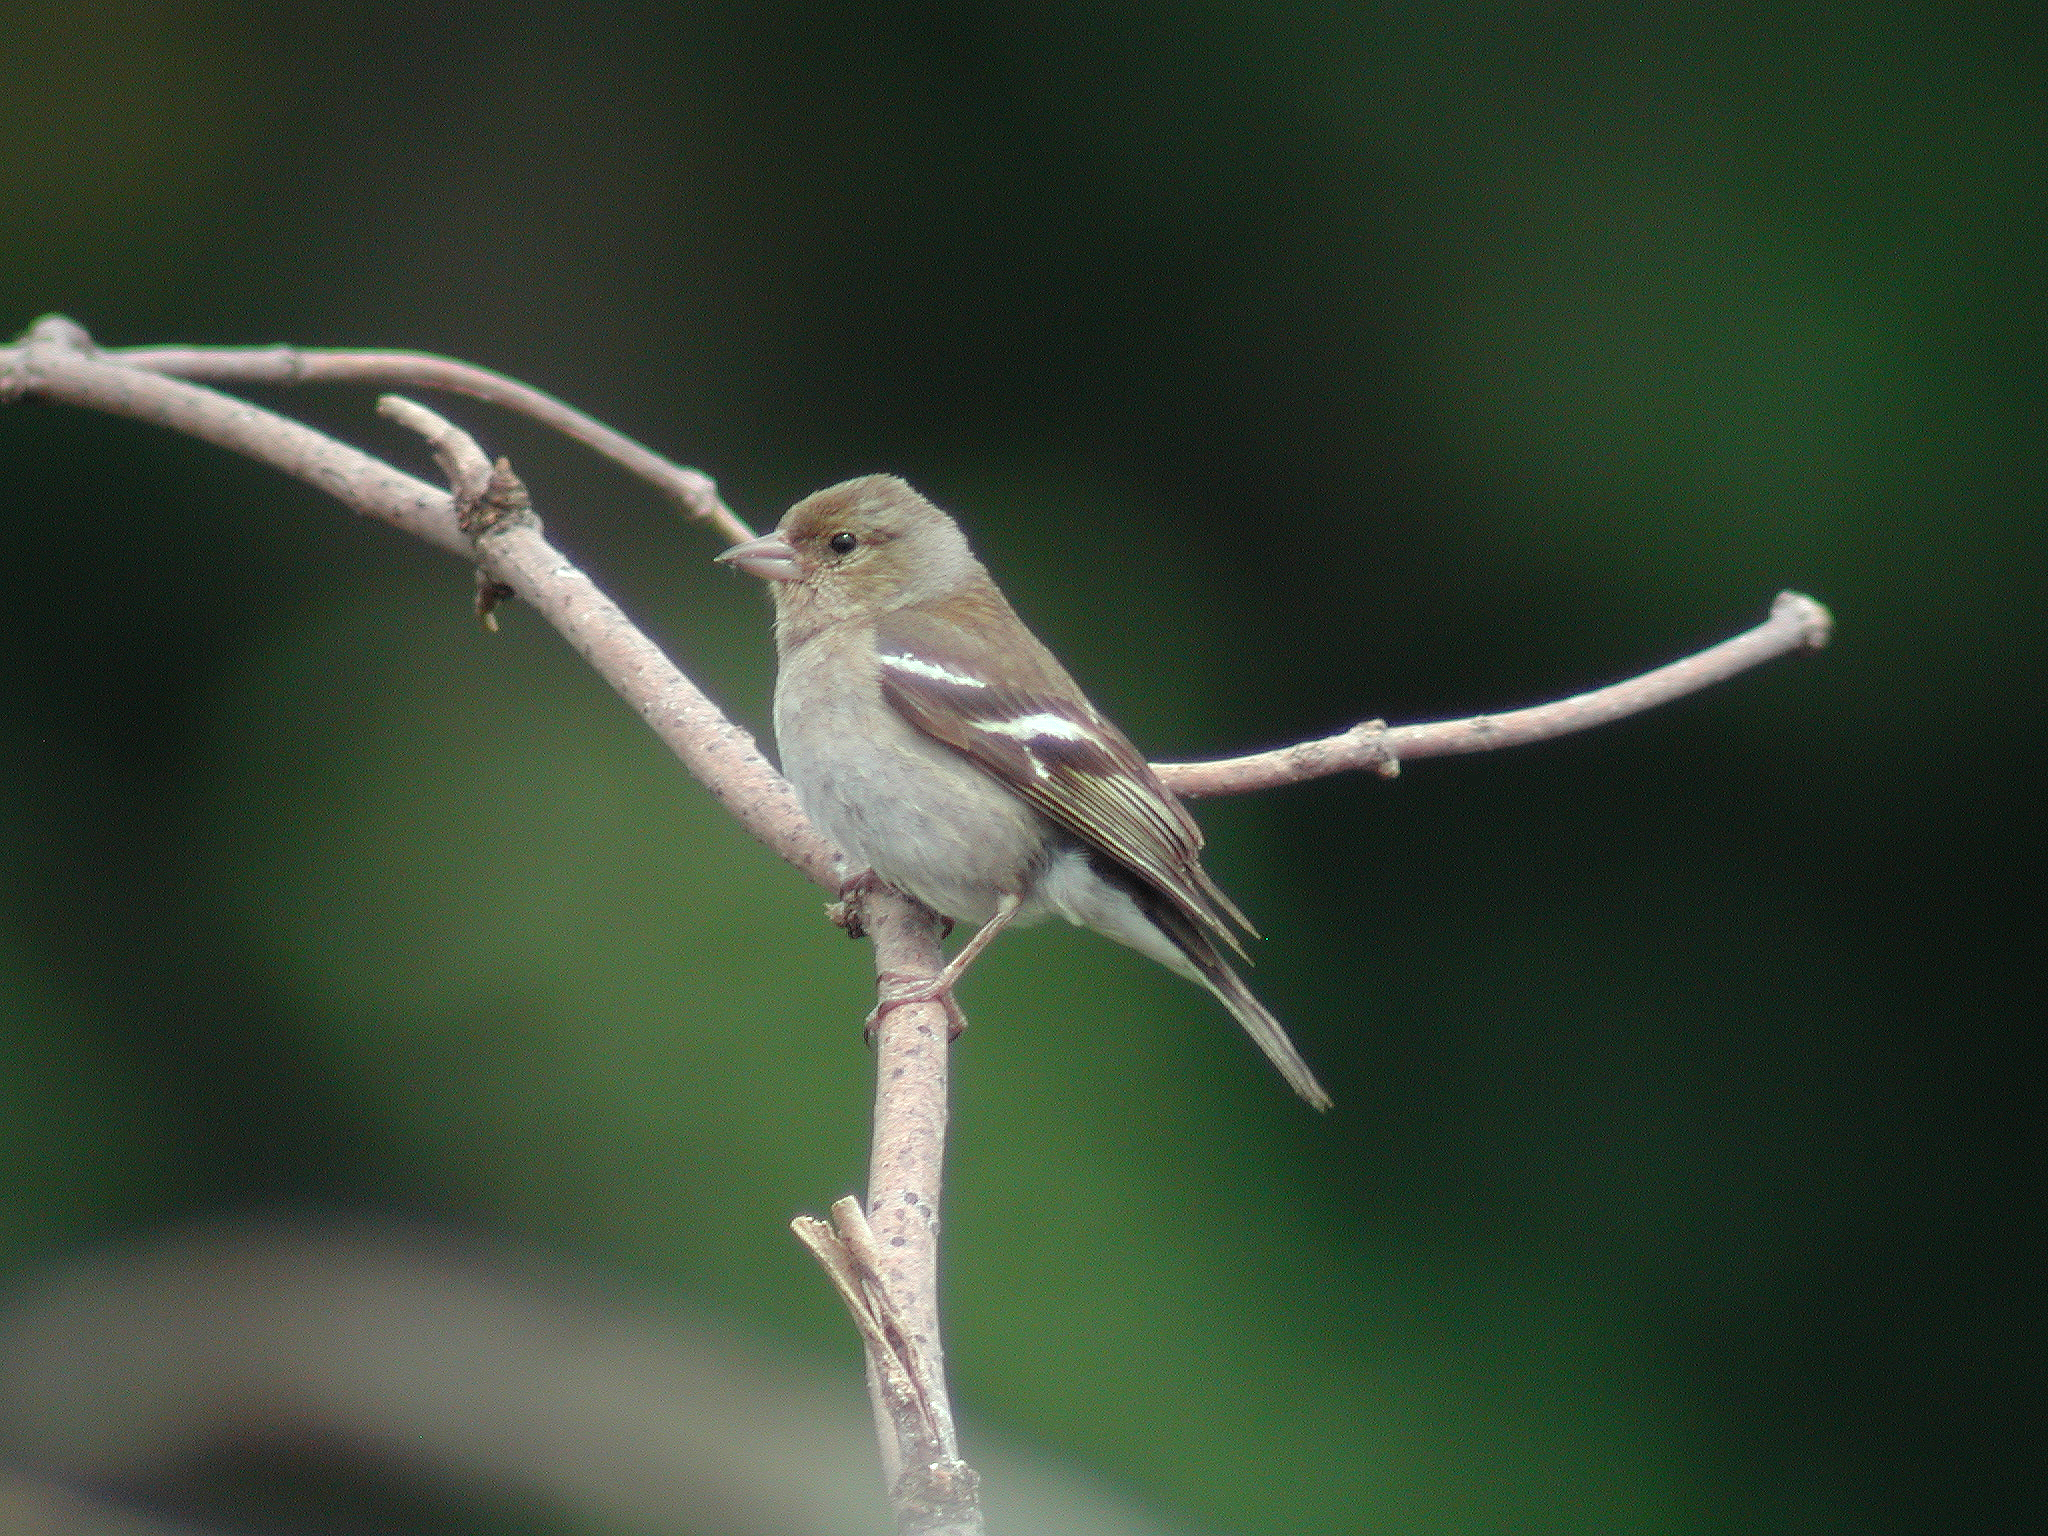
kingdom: Animalia
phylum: Chordata
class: Aves
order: Passeriformes
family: Fringillidae
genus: Fringilla
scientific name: Fringilla coelebs
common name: Common chaffinch
